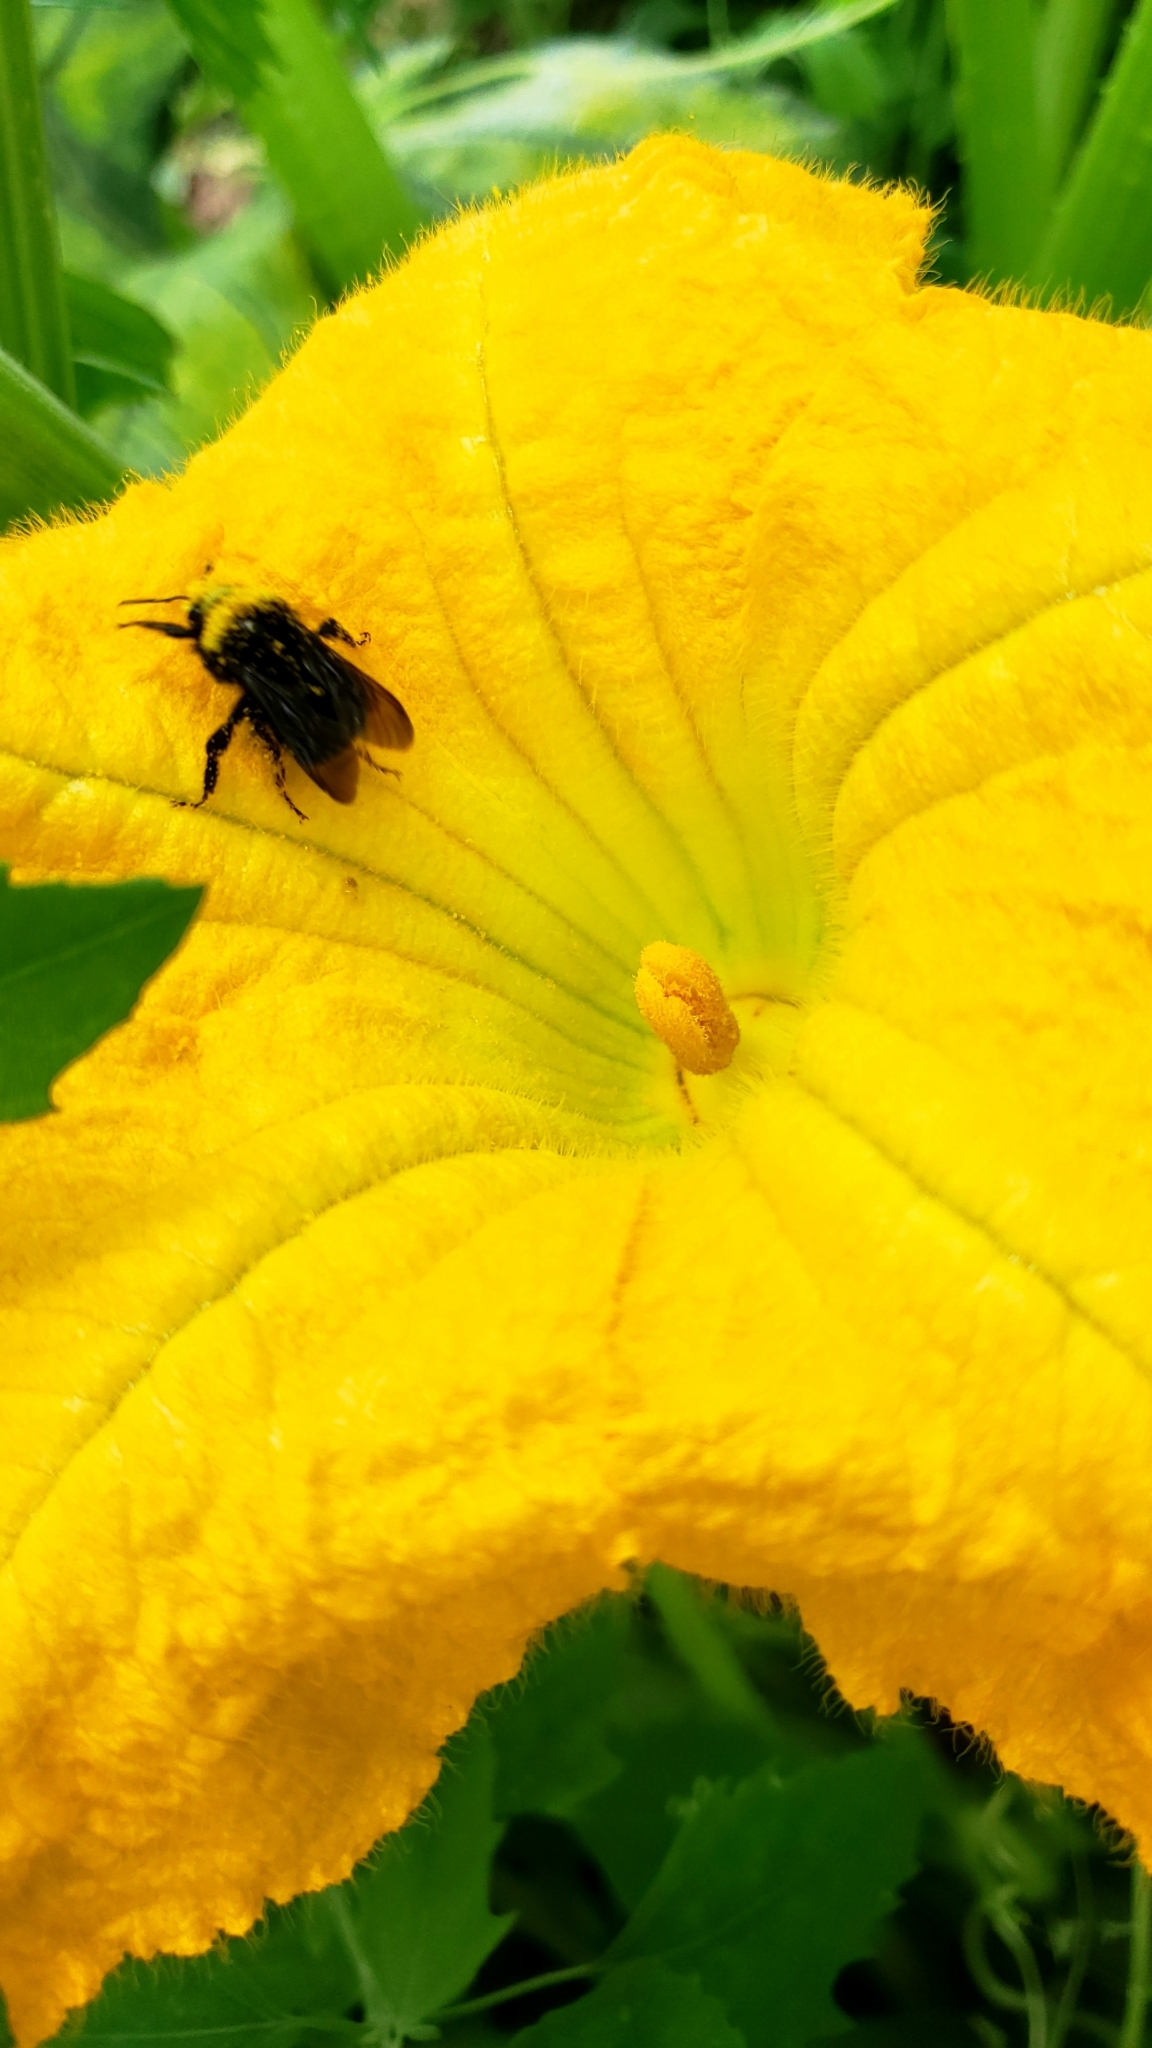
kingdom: Animalia
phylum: Arthropoda
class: Insecta
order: Hymenoptera
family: Apidae
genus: Bombus
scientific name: Bombus vosnesenskii
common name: Vosnesensky bumble bee
